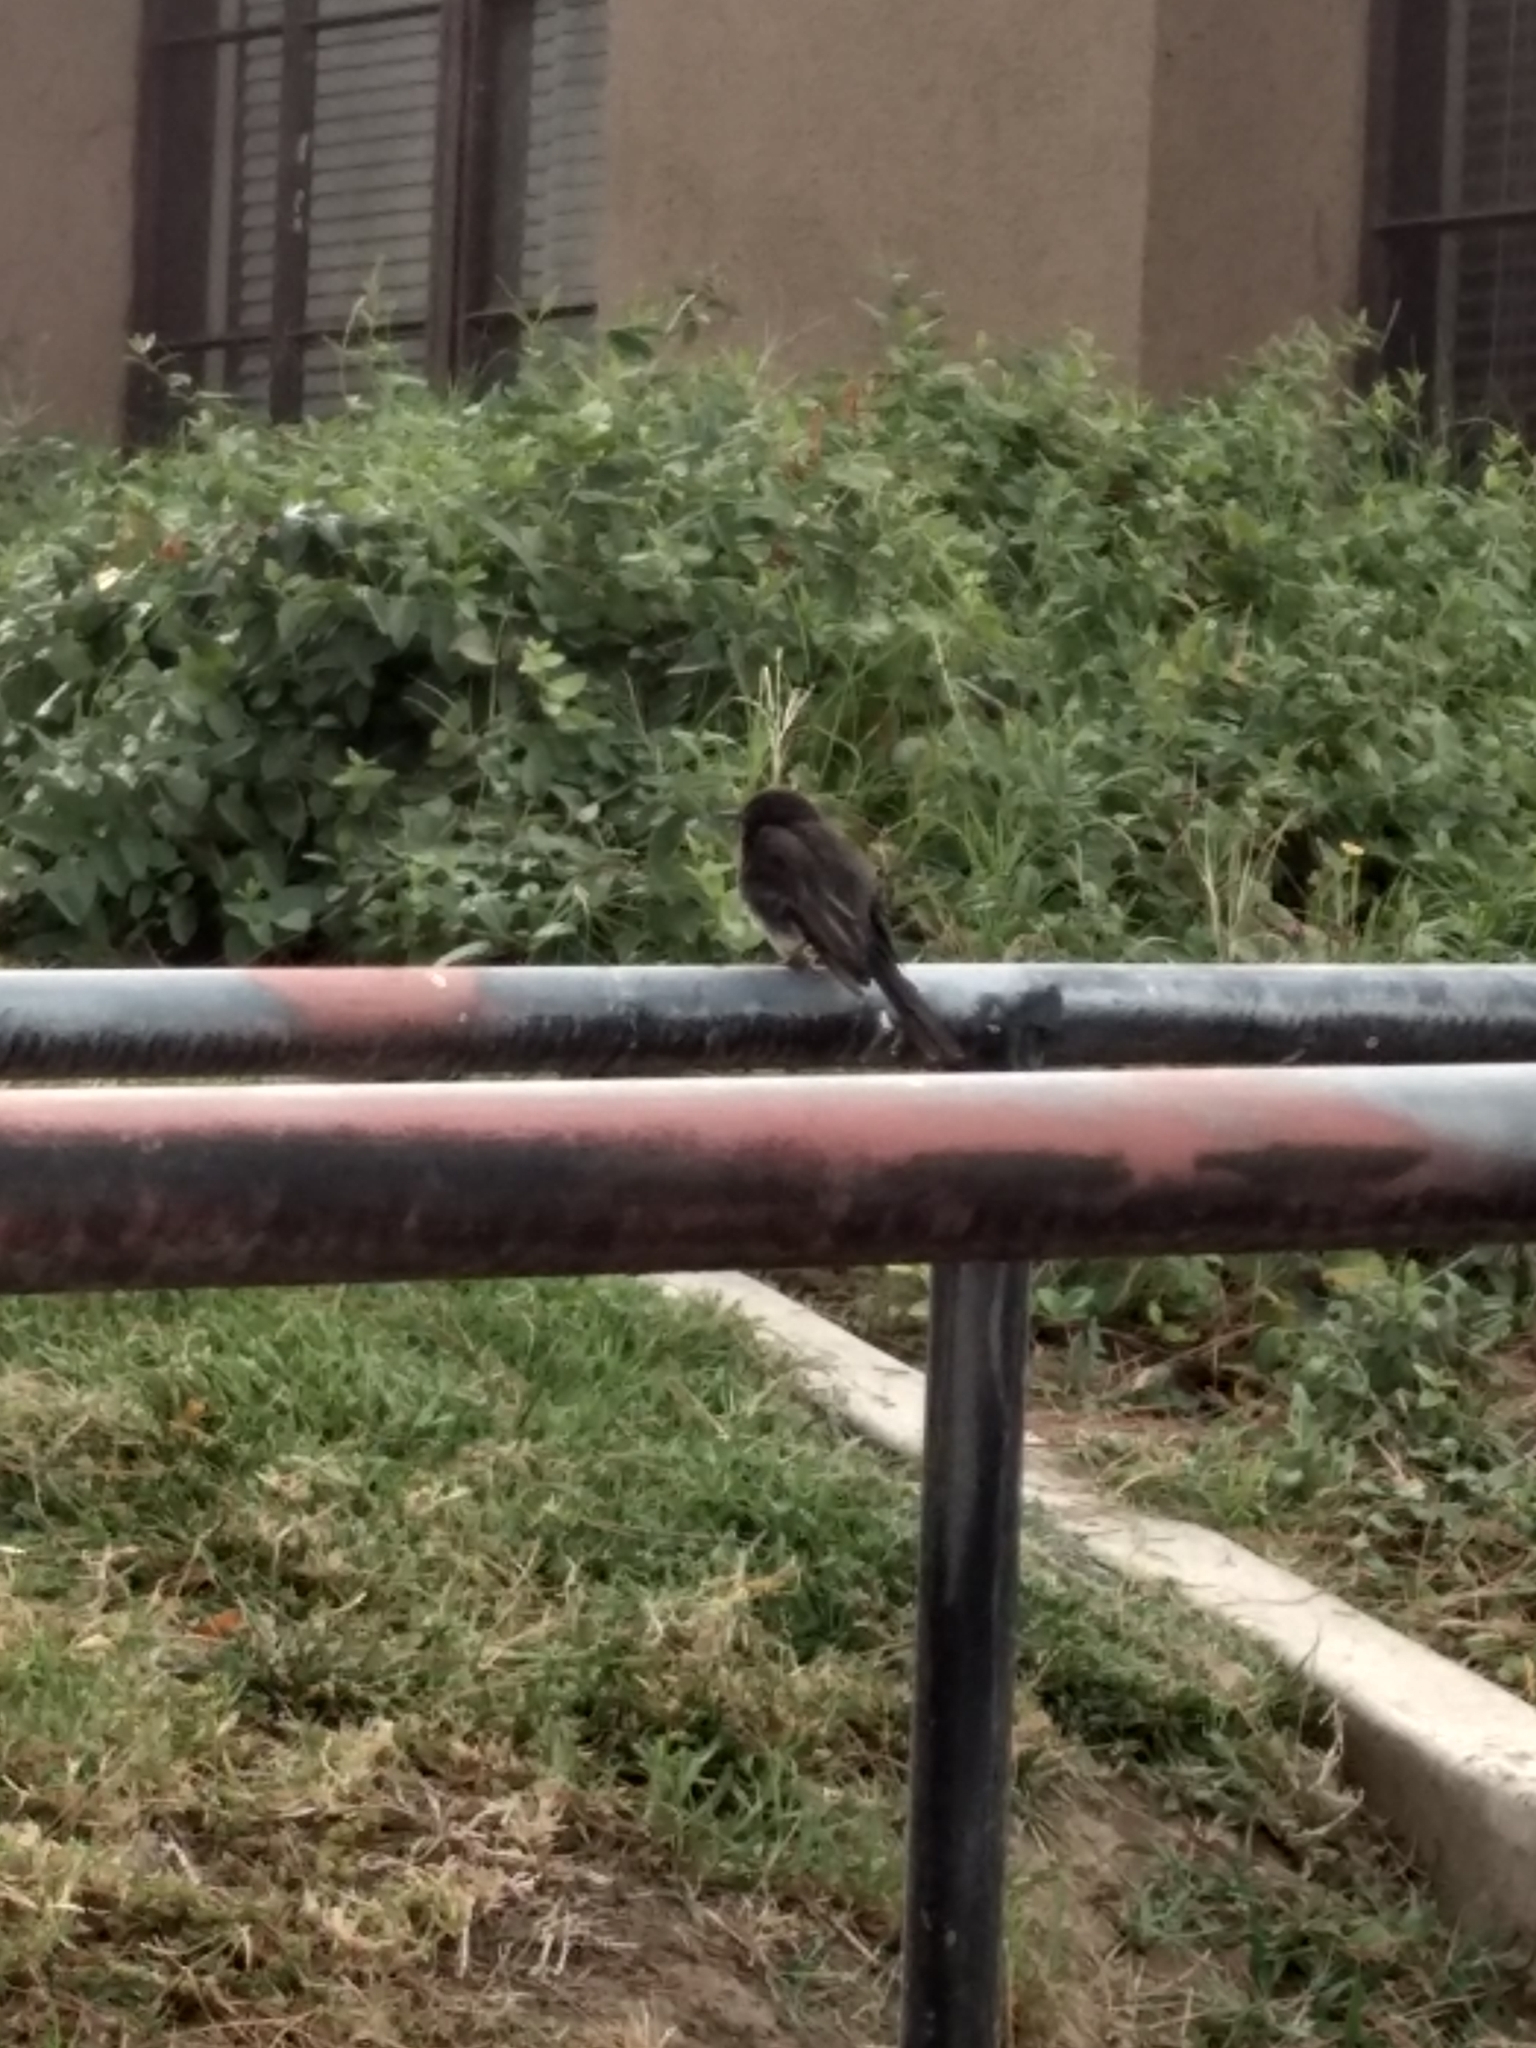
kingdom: Animalia
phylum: Chordata
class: Aves
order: Passeriformes
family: Tyrannidae
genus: Sayornis
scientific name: Sayornis nigricans
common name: Black phoebe
